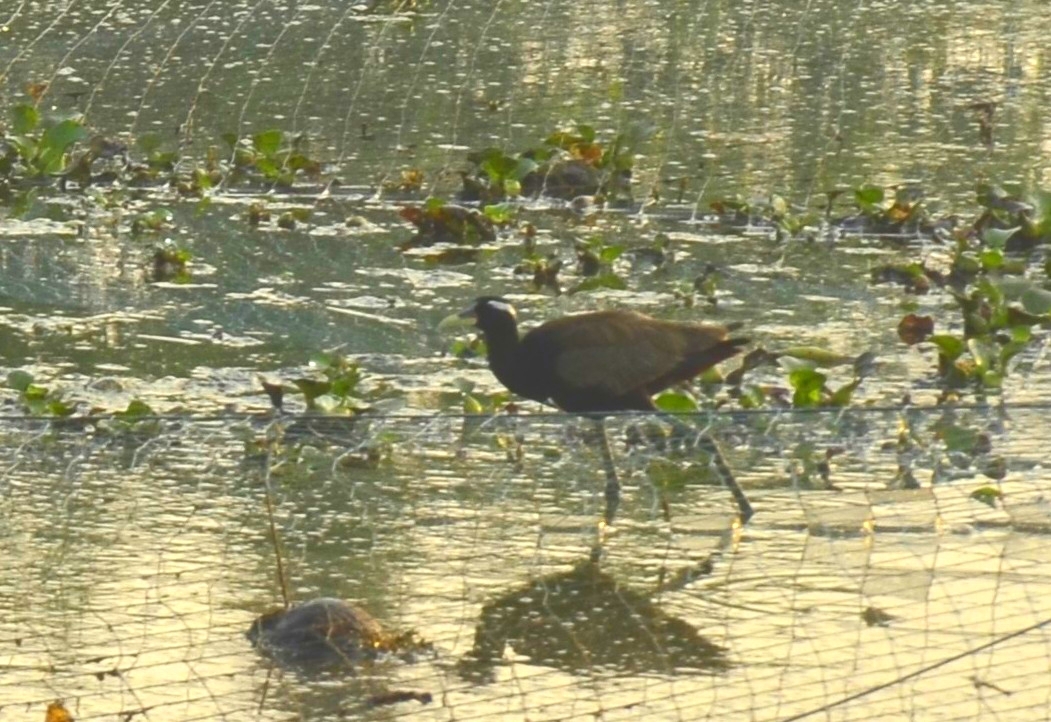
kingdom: Animalia
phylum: Chordata
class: Aves
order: Charadriiformes
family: Jacanidae
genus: Metopidius
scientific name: Metopidius indicus
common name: Bronze-winged jacana
